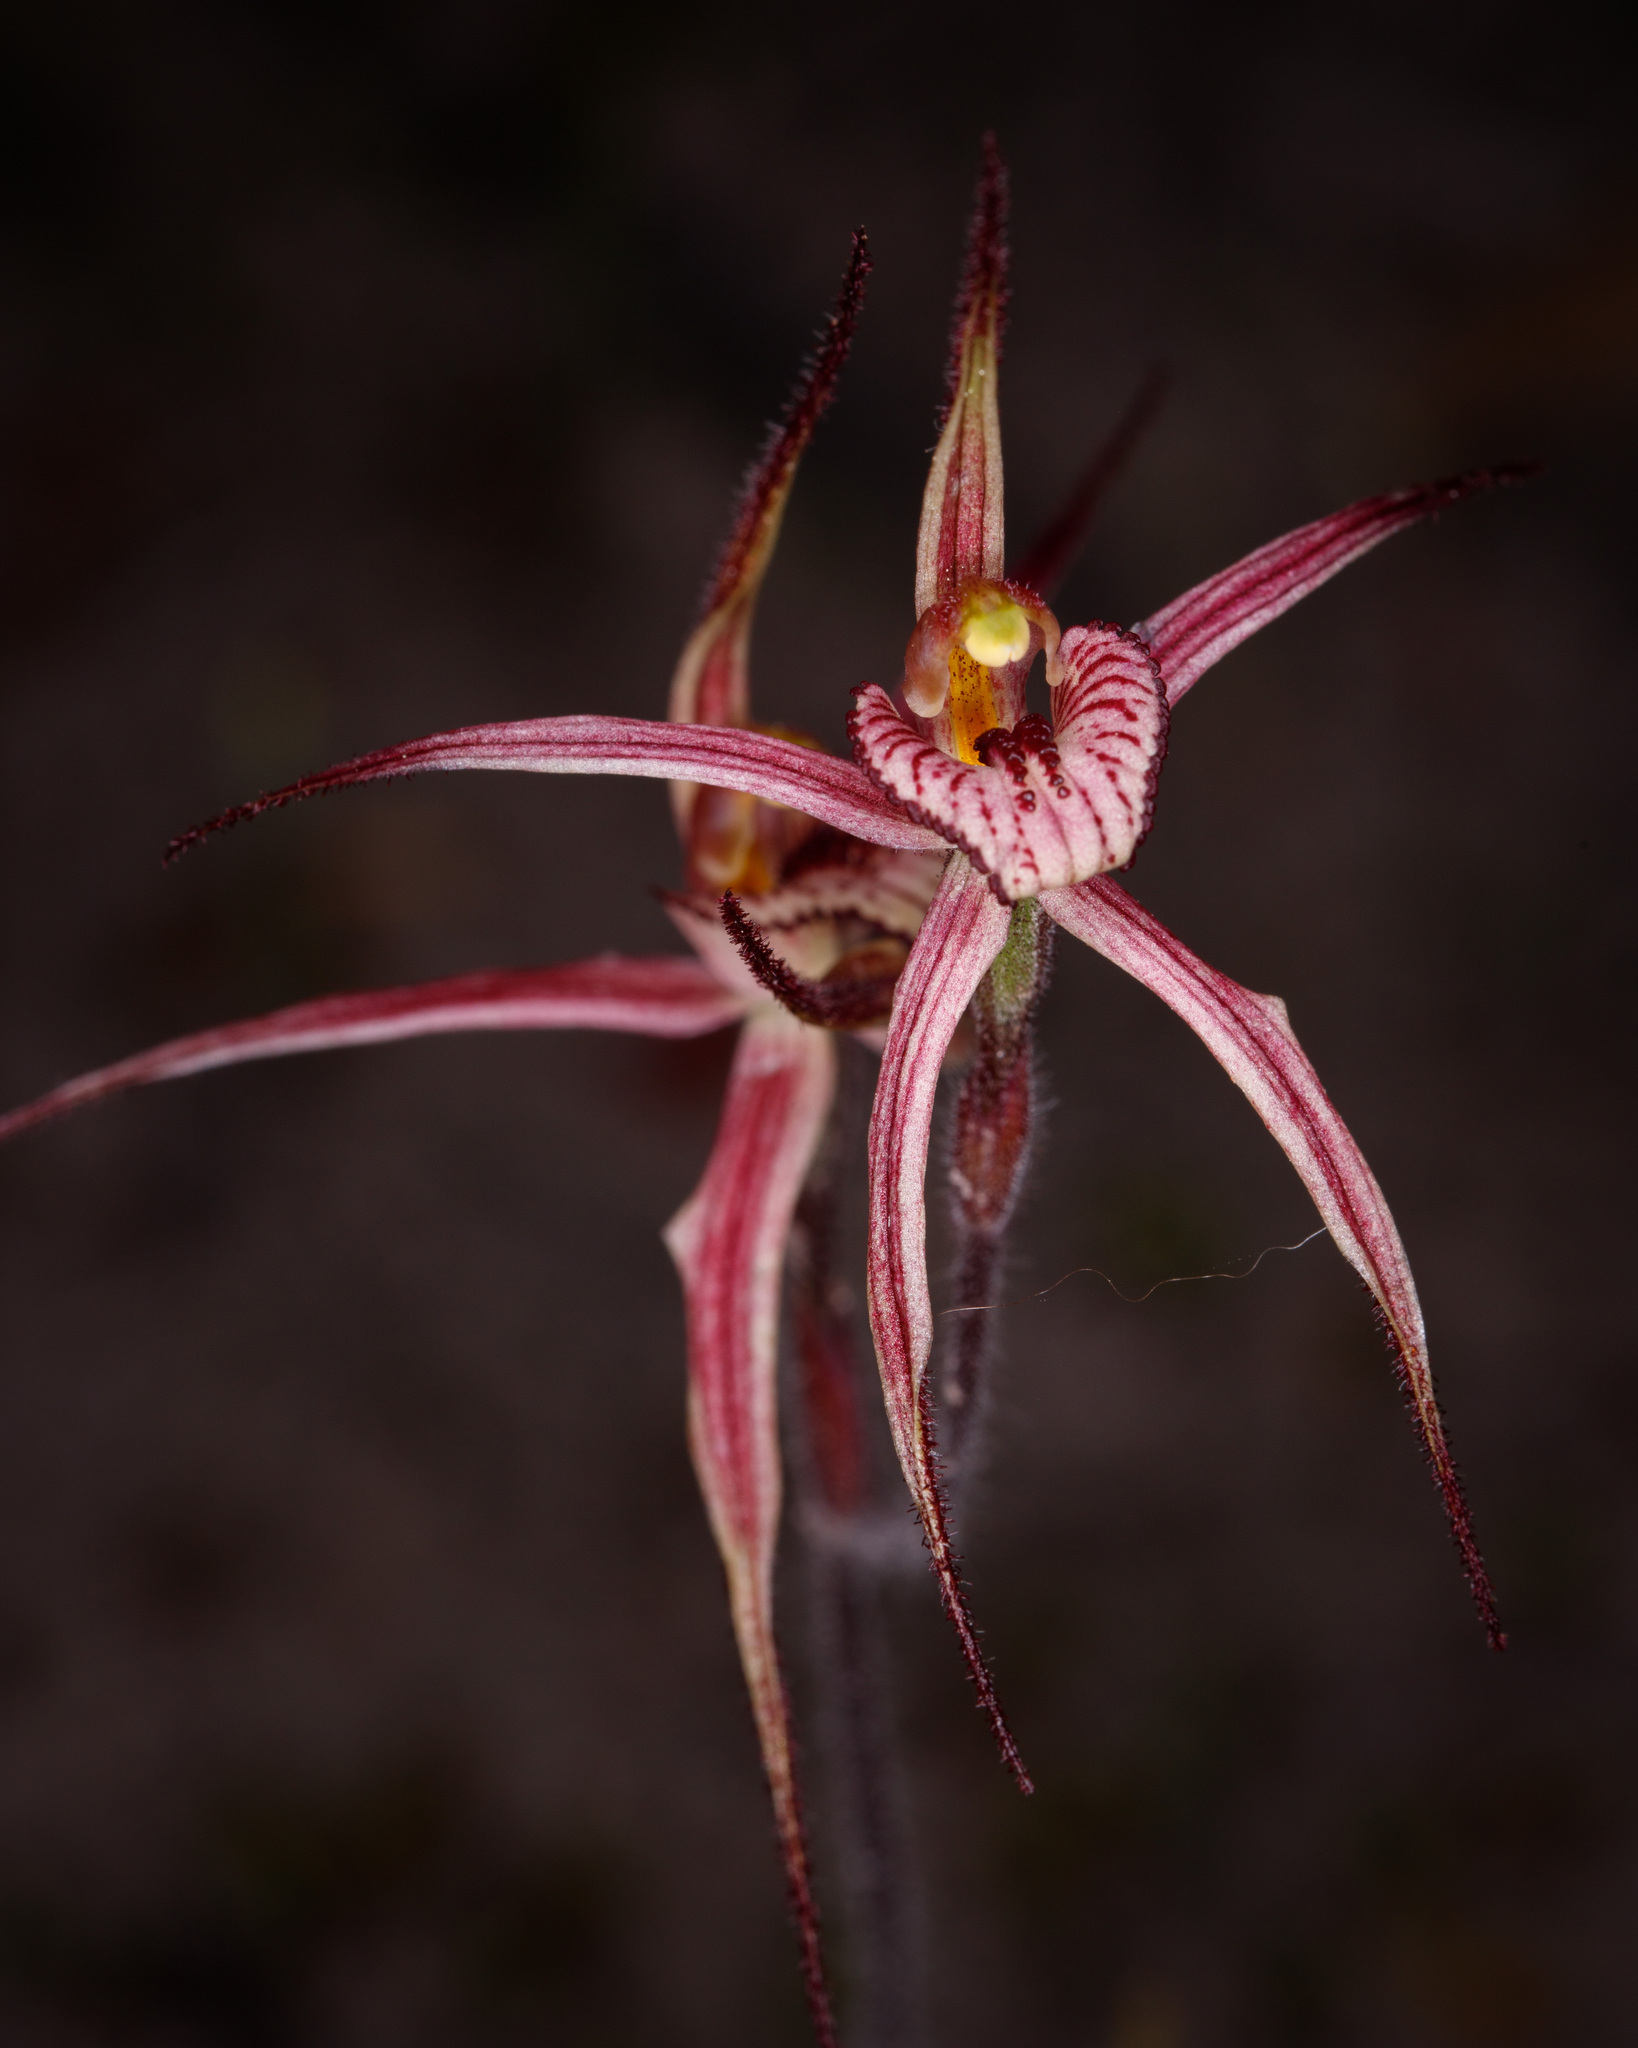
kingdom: Plantae
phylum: Tracheophyta
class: Liliopsida
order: Asparagales
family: Orchidaceae
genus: Caladenia
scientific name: Caladenia ericksoniae
